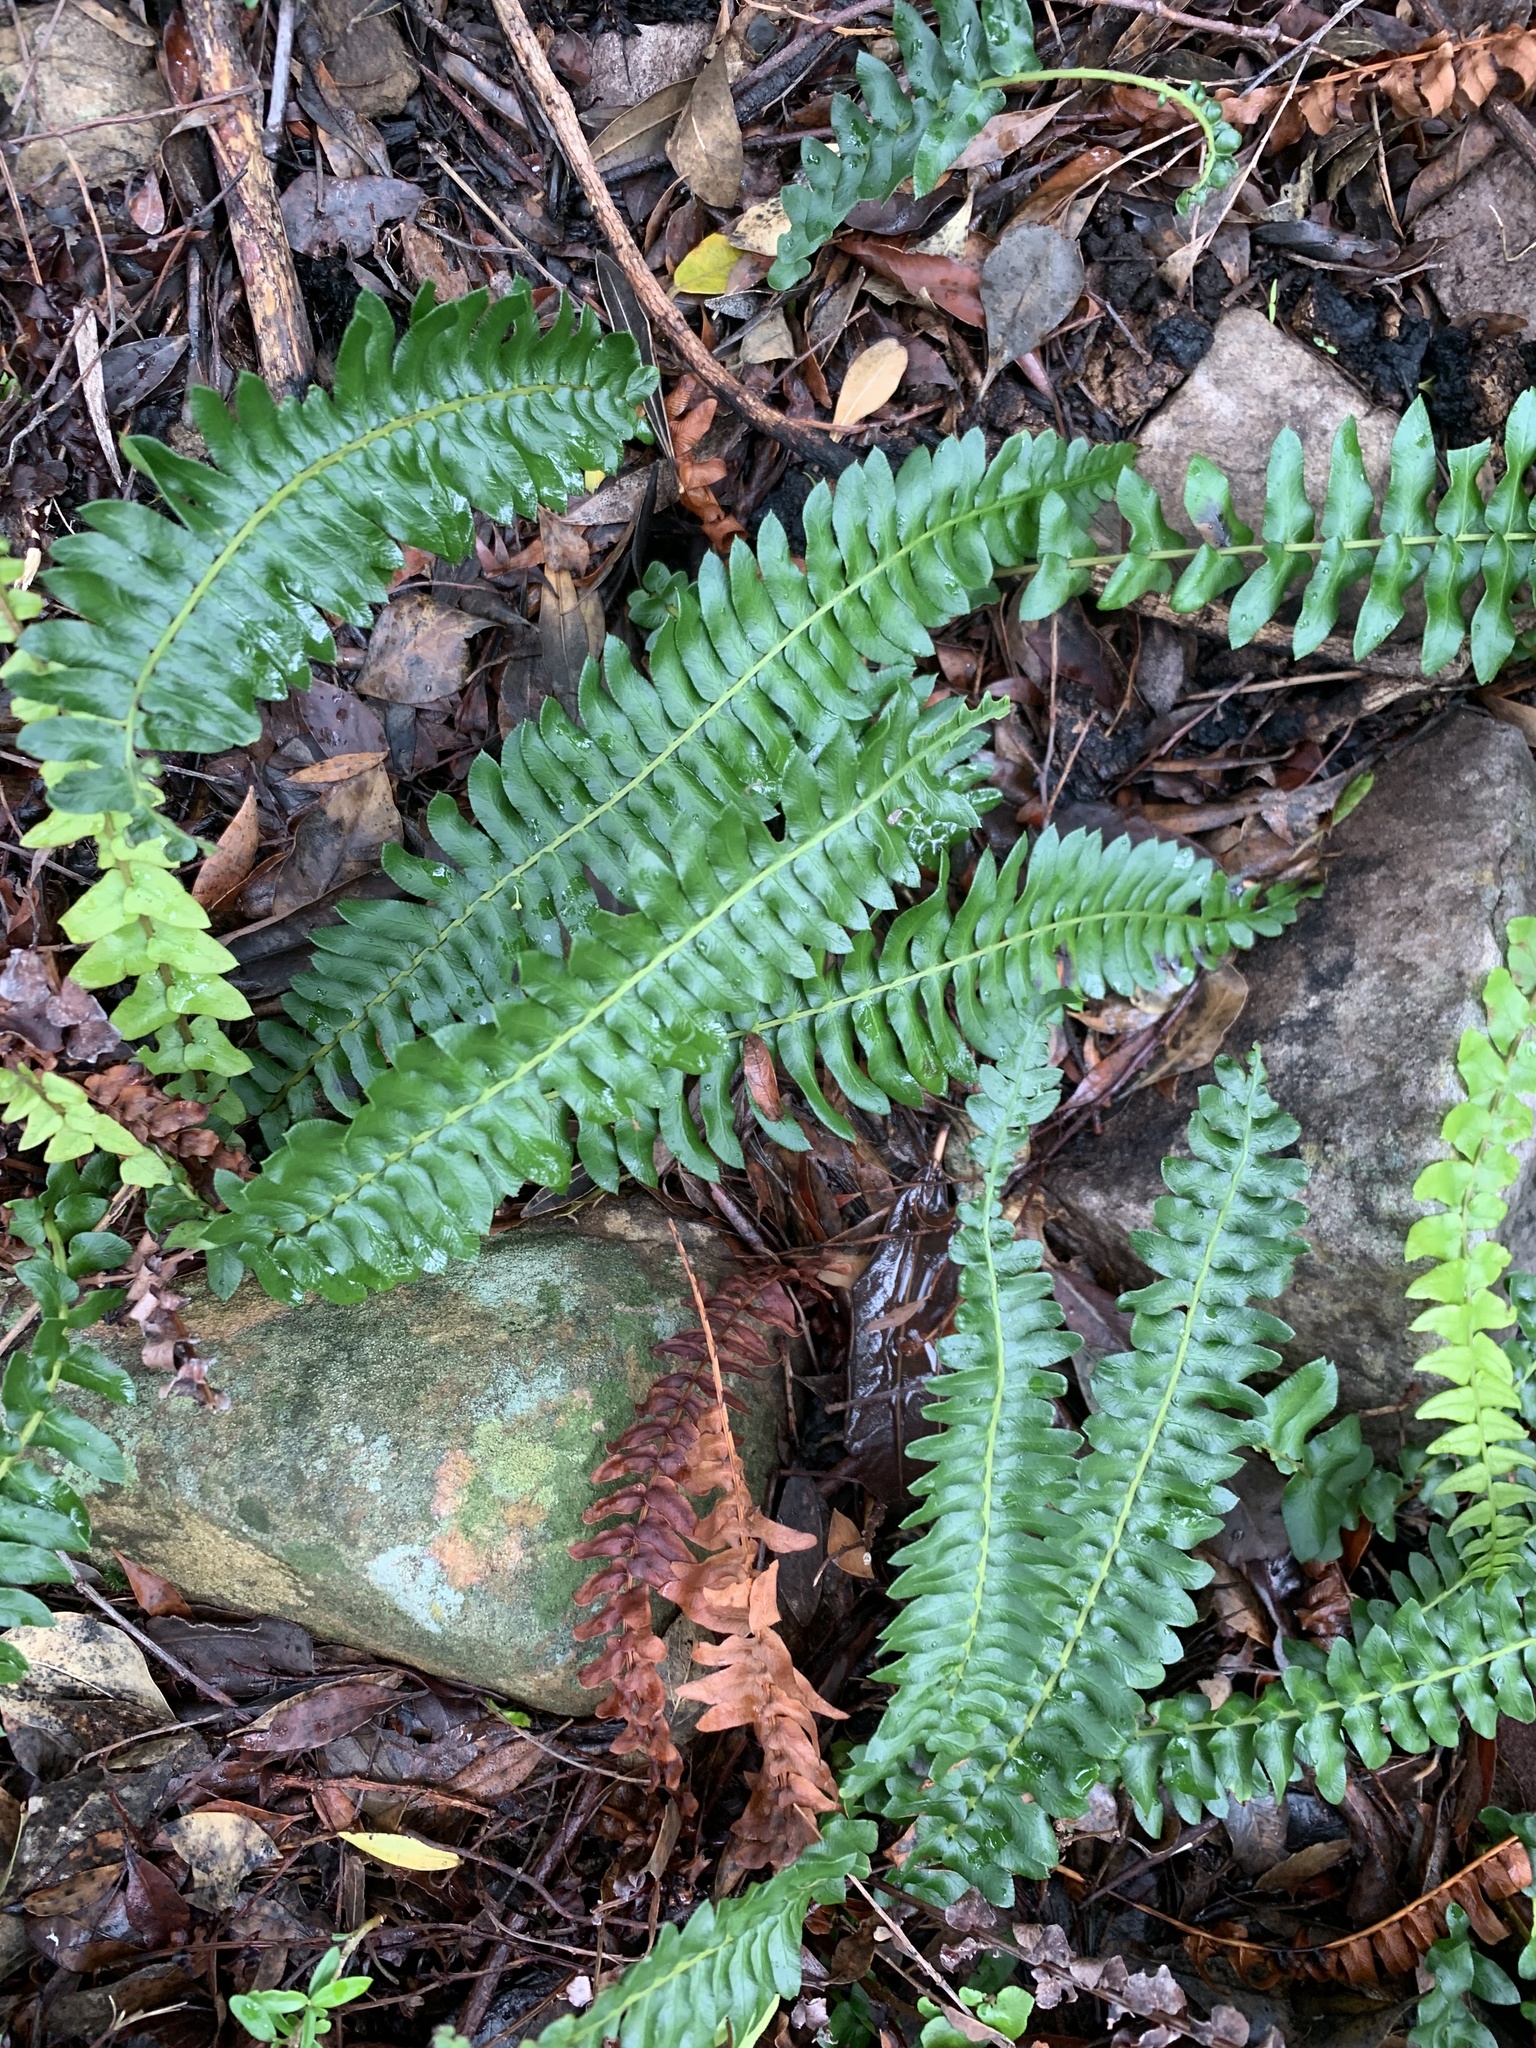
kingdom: Plantae
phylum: Tracheophyta
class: Polypodiopsida
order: Polypodiales
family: Blechnaceae
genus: Blechnum
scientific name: Blechnum australe
